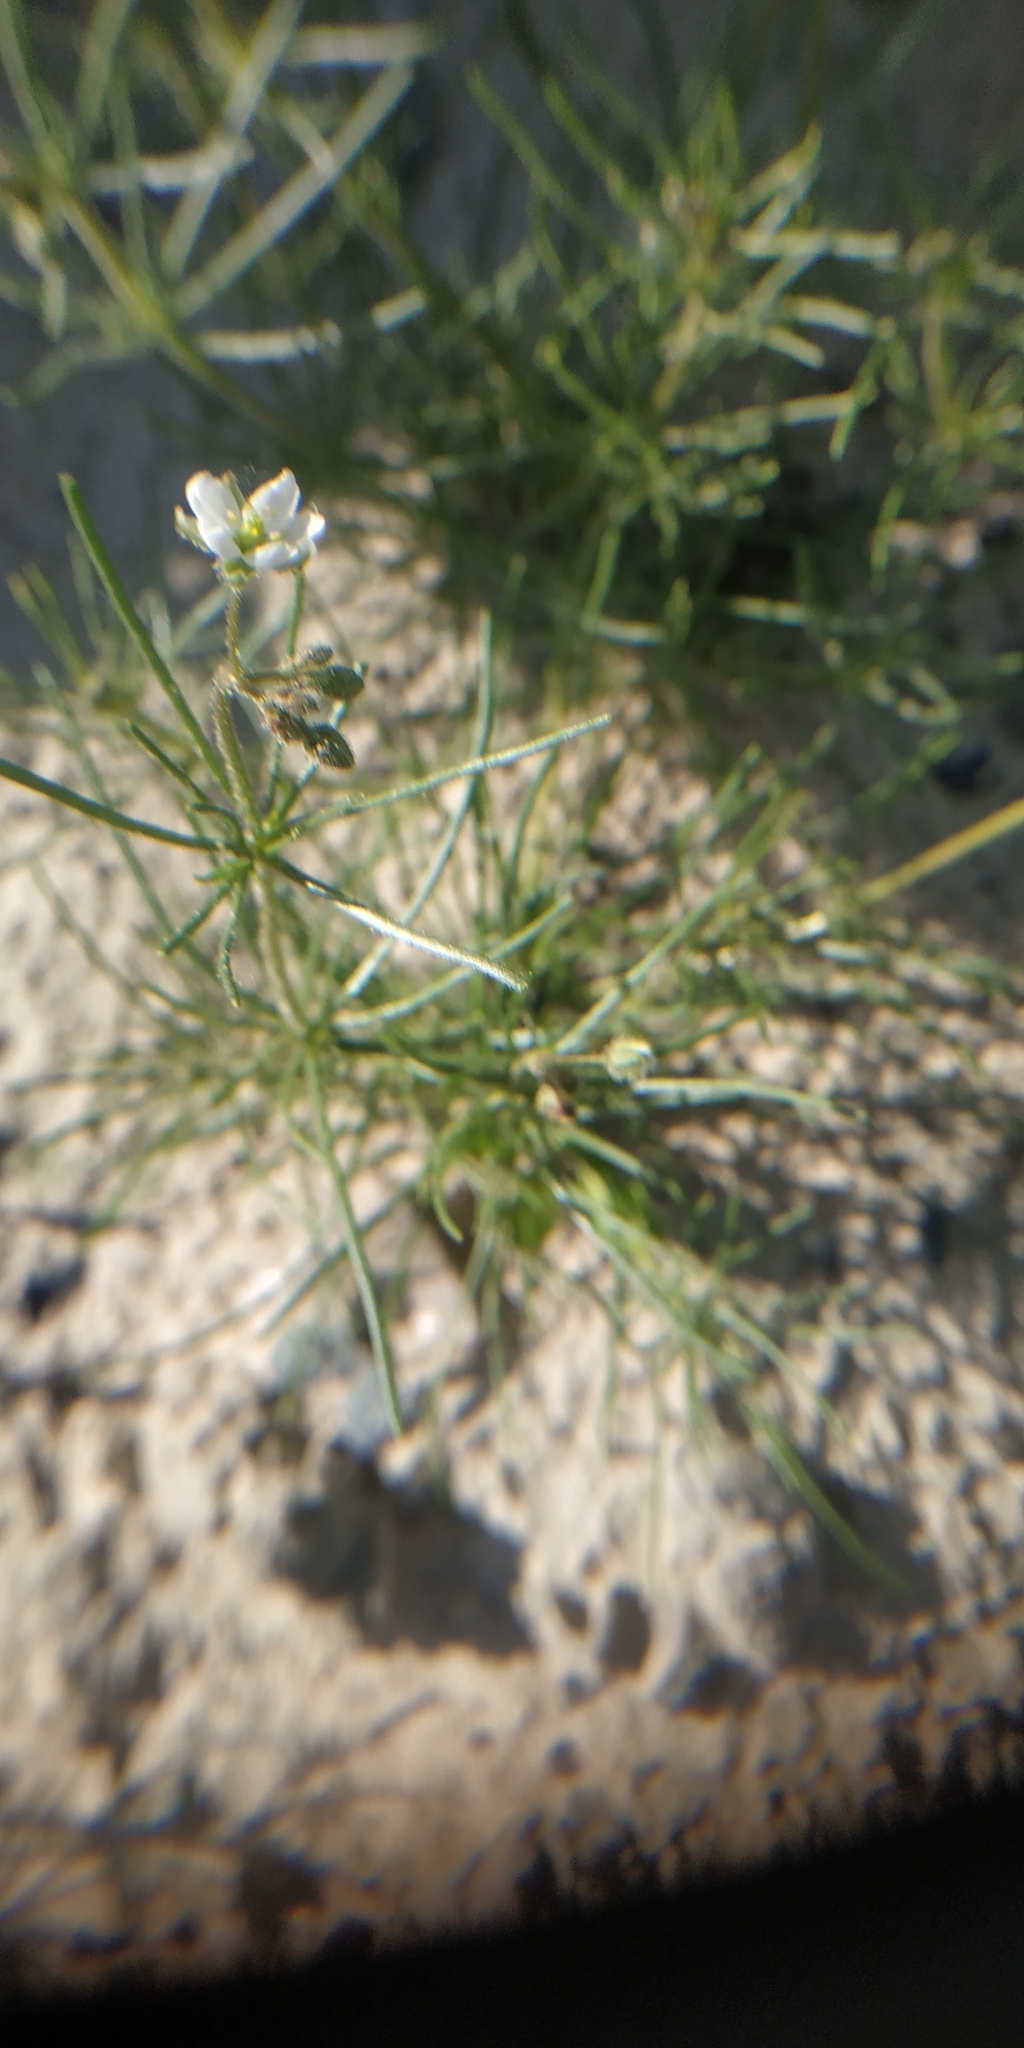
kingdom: Plantae
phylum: Tracheophyta
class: Magnoliopsida
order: Caryophyllales
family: Caryophyllaceae
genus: Spergula
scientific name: Spergula arvensis
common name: Corn spurrey
